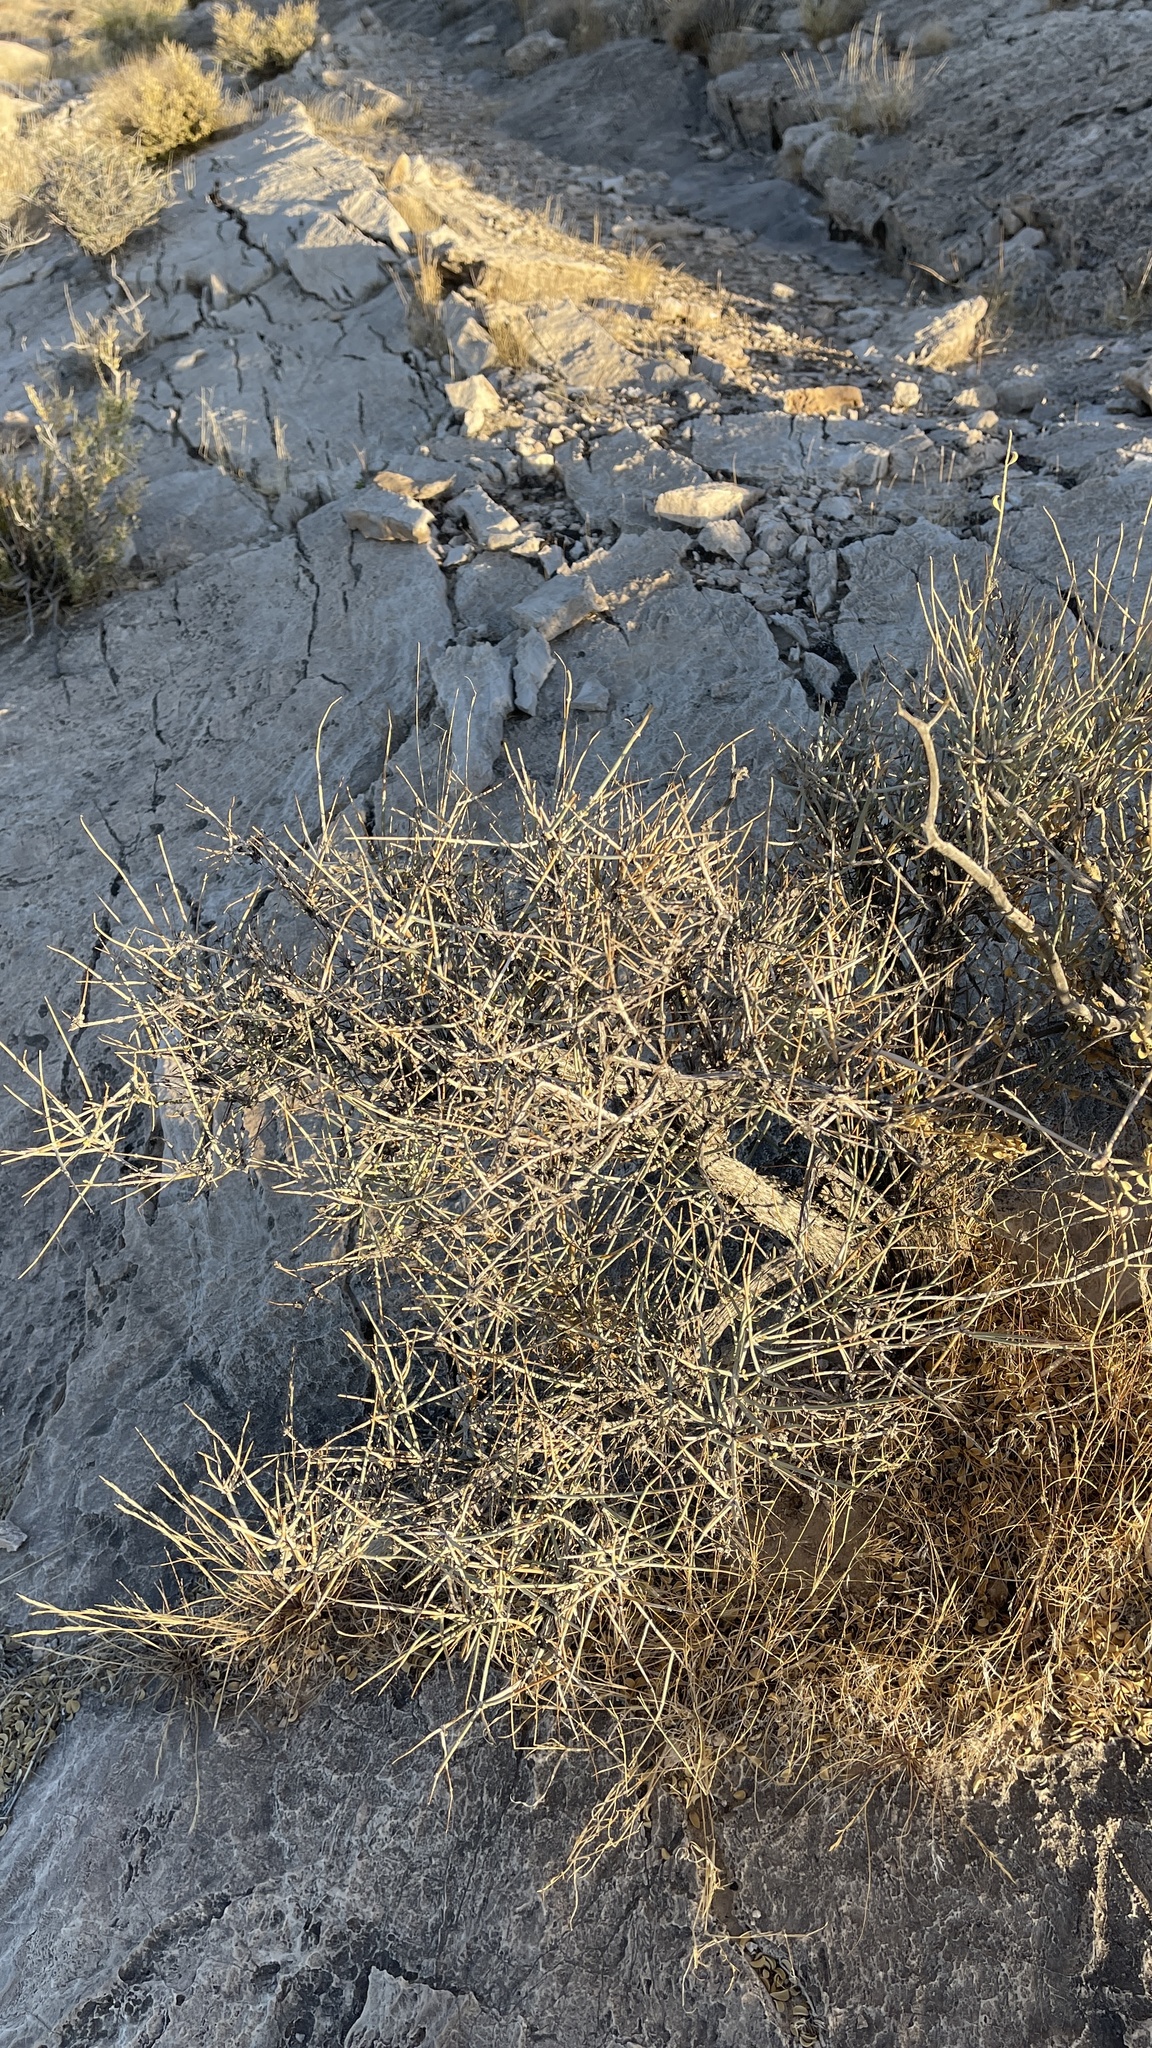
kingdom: Plantae
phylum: Tracheophyta
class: Gnetopsida
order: Ephedrales
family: Ephedraceae
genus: Ephedra
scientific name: Ephedra nevadensis
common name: Gray ephedra
